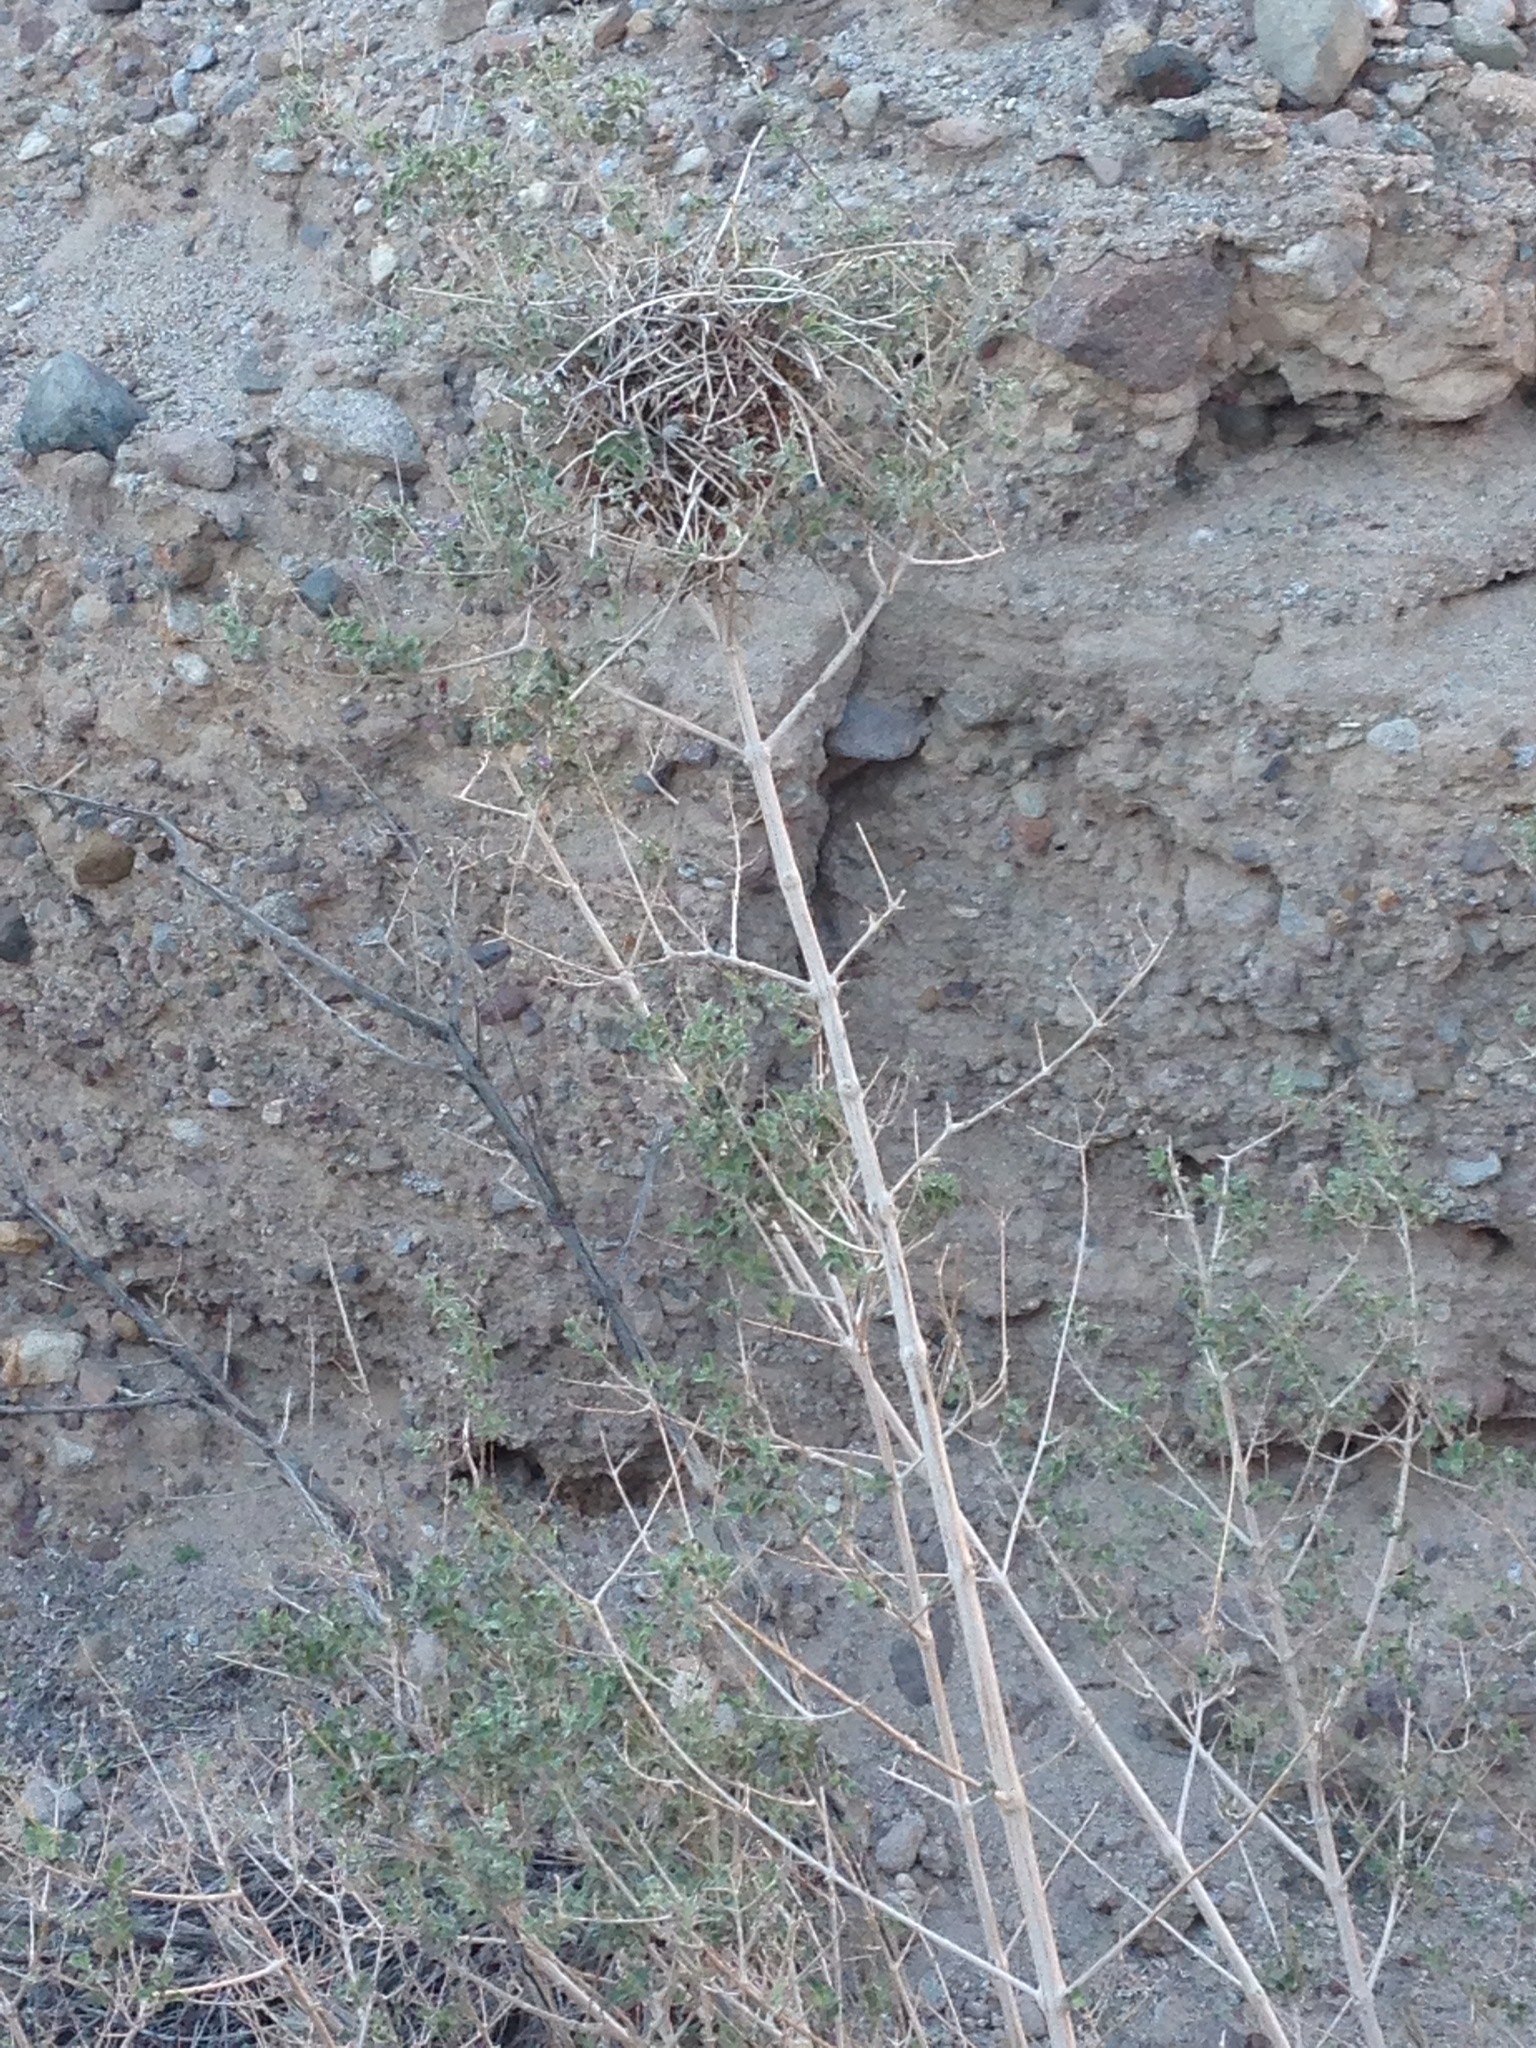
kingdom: Animalia
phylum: Chordata
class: Aves
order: Passeriformes
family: Remizidae
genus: Auriparus
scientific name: Auriparus flaviceps
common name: Verdin
